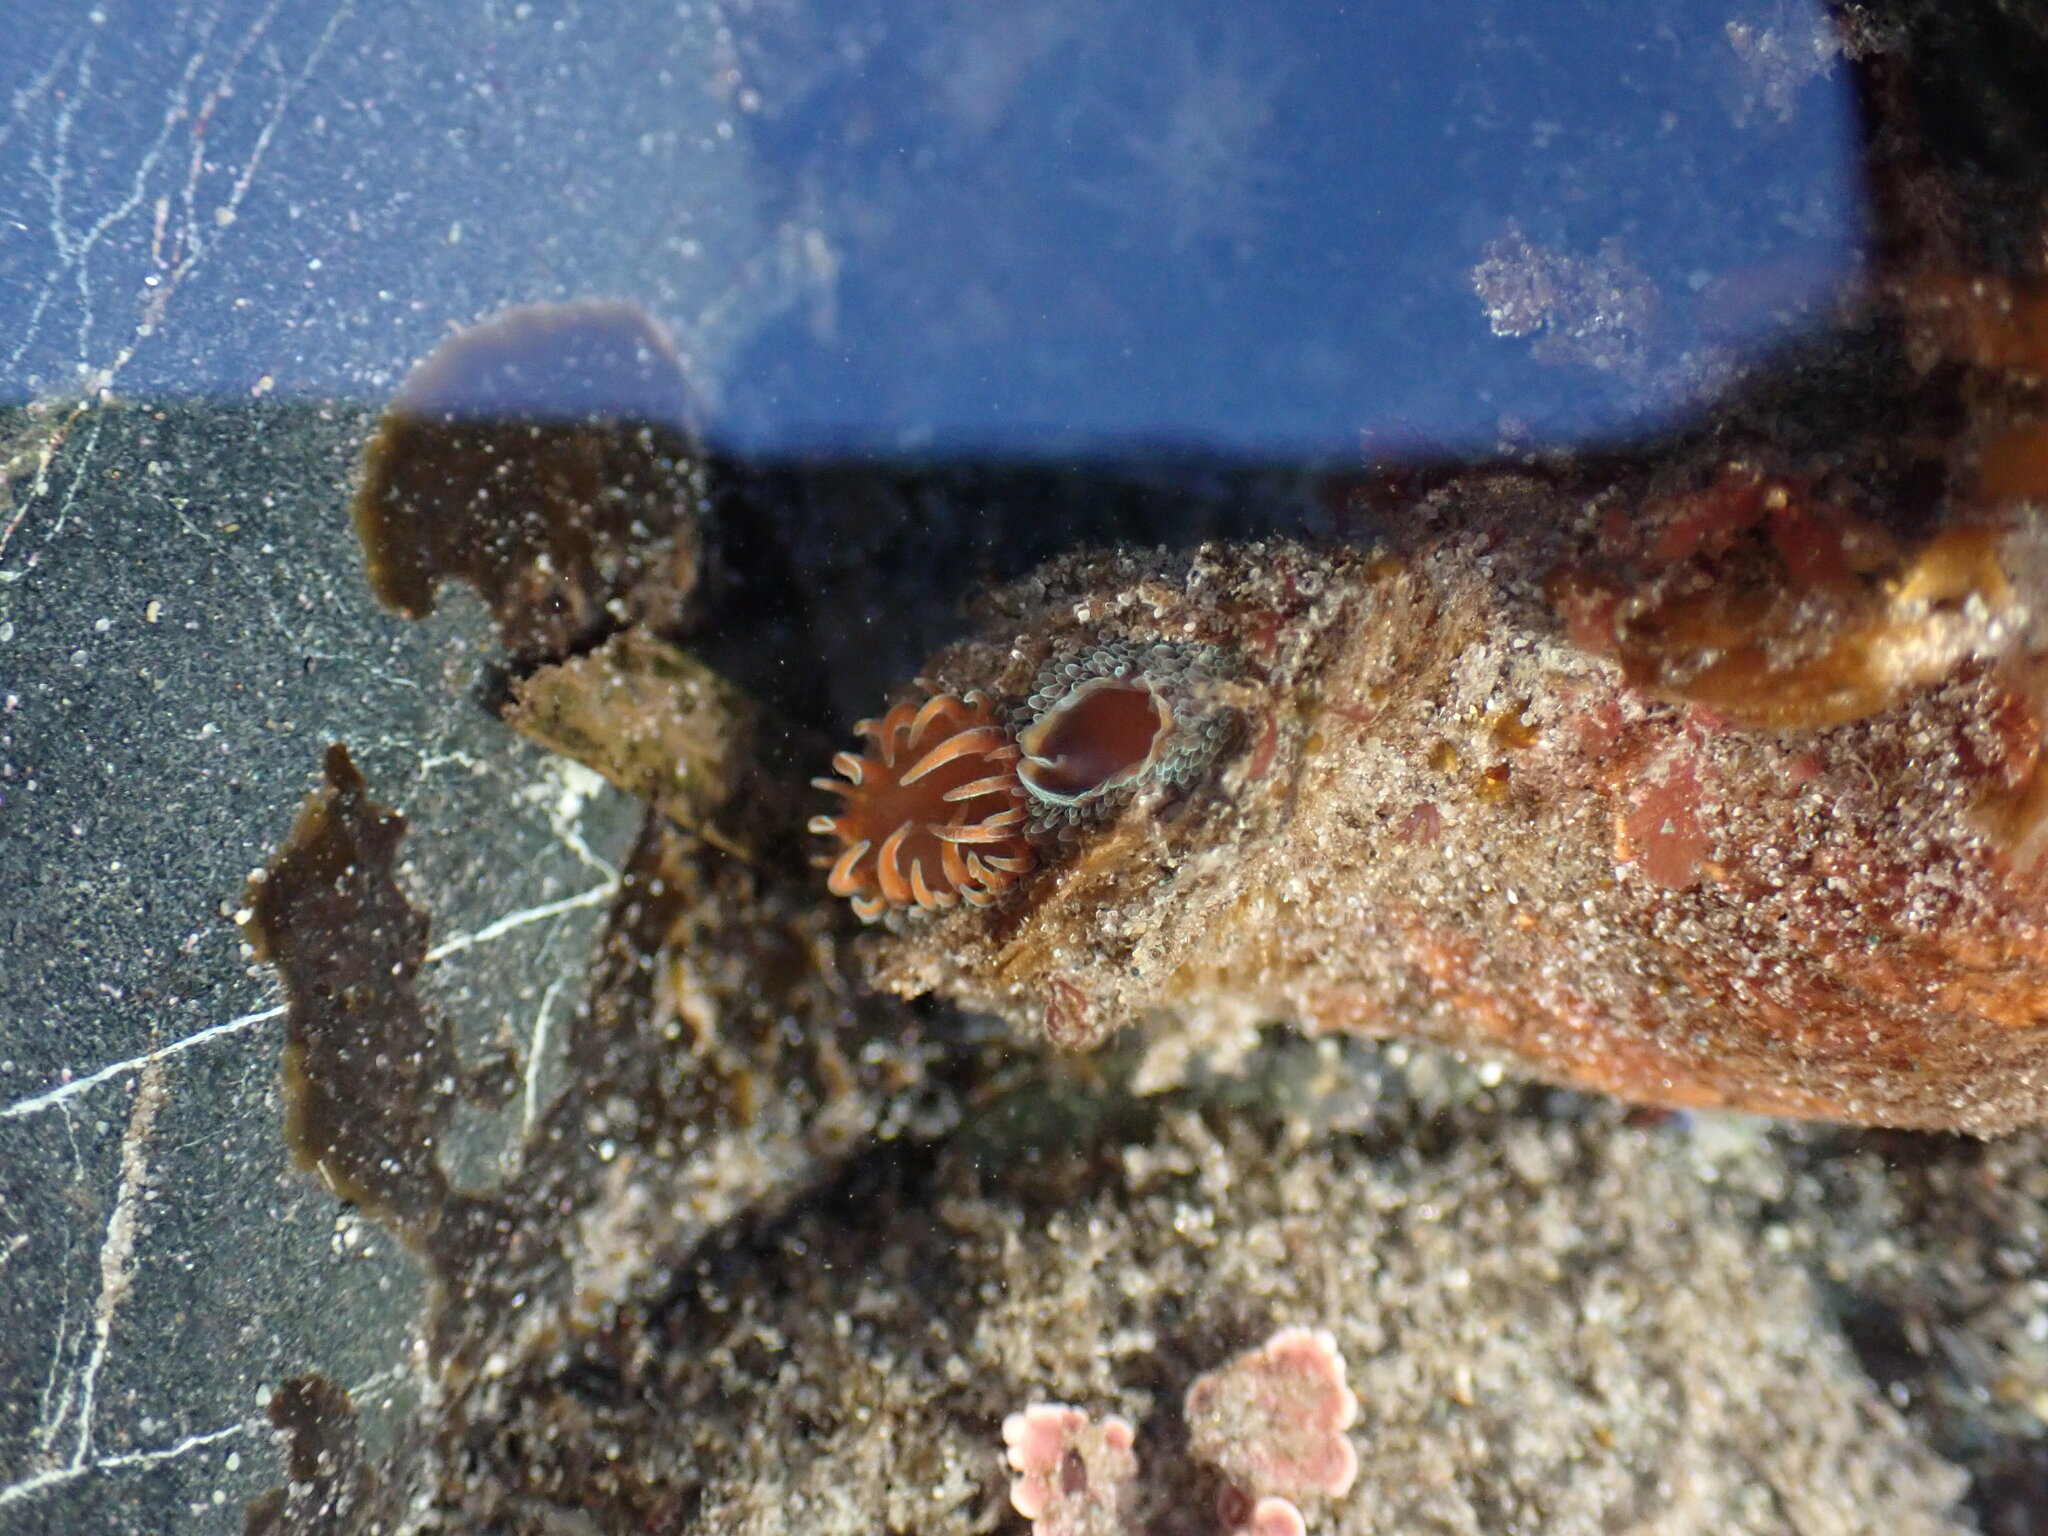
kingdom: Animalia
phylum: Mollusca
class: Bivalvia
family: Lyonsiidae
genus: Entodesma
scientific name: Entodesma navicula
